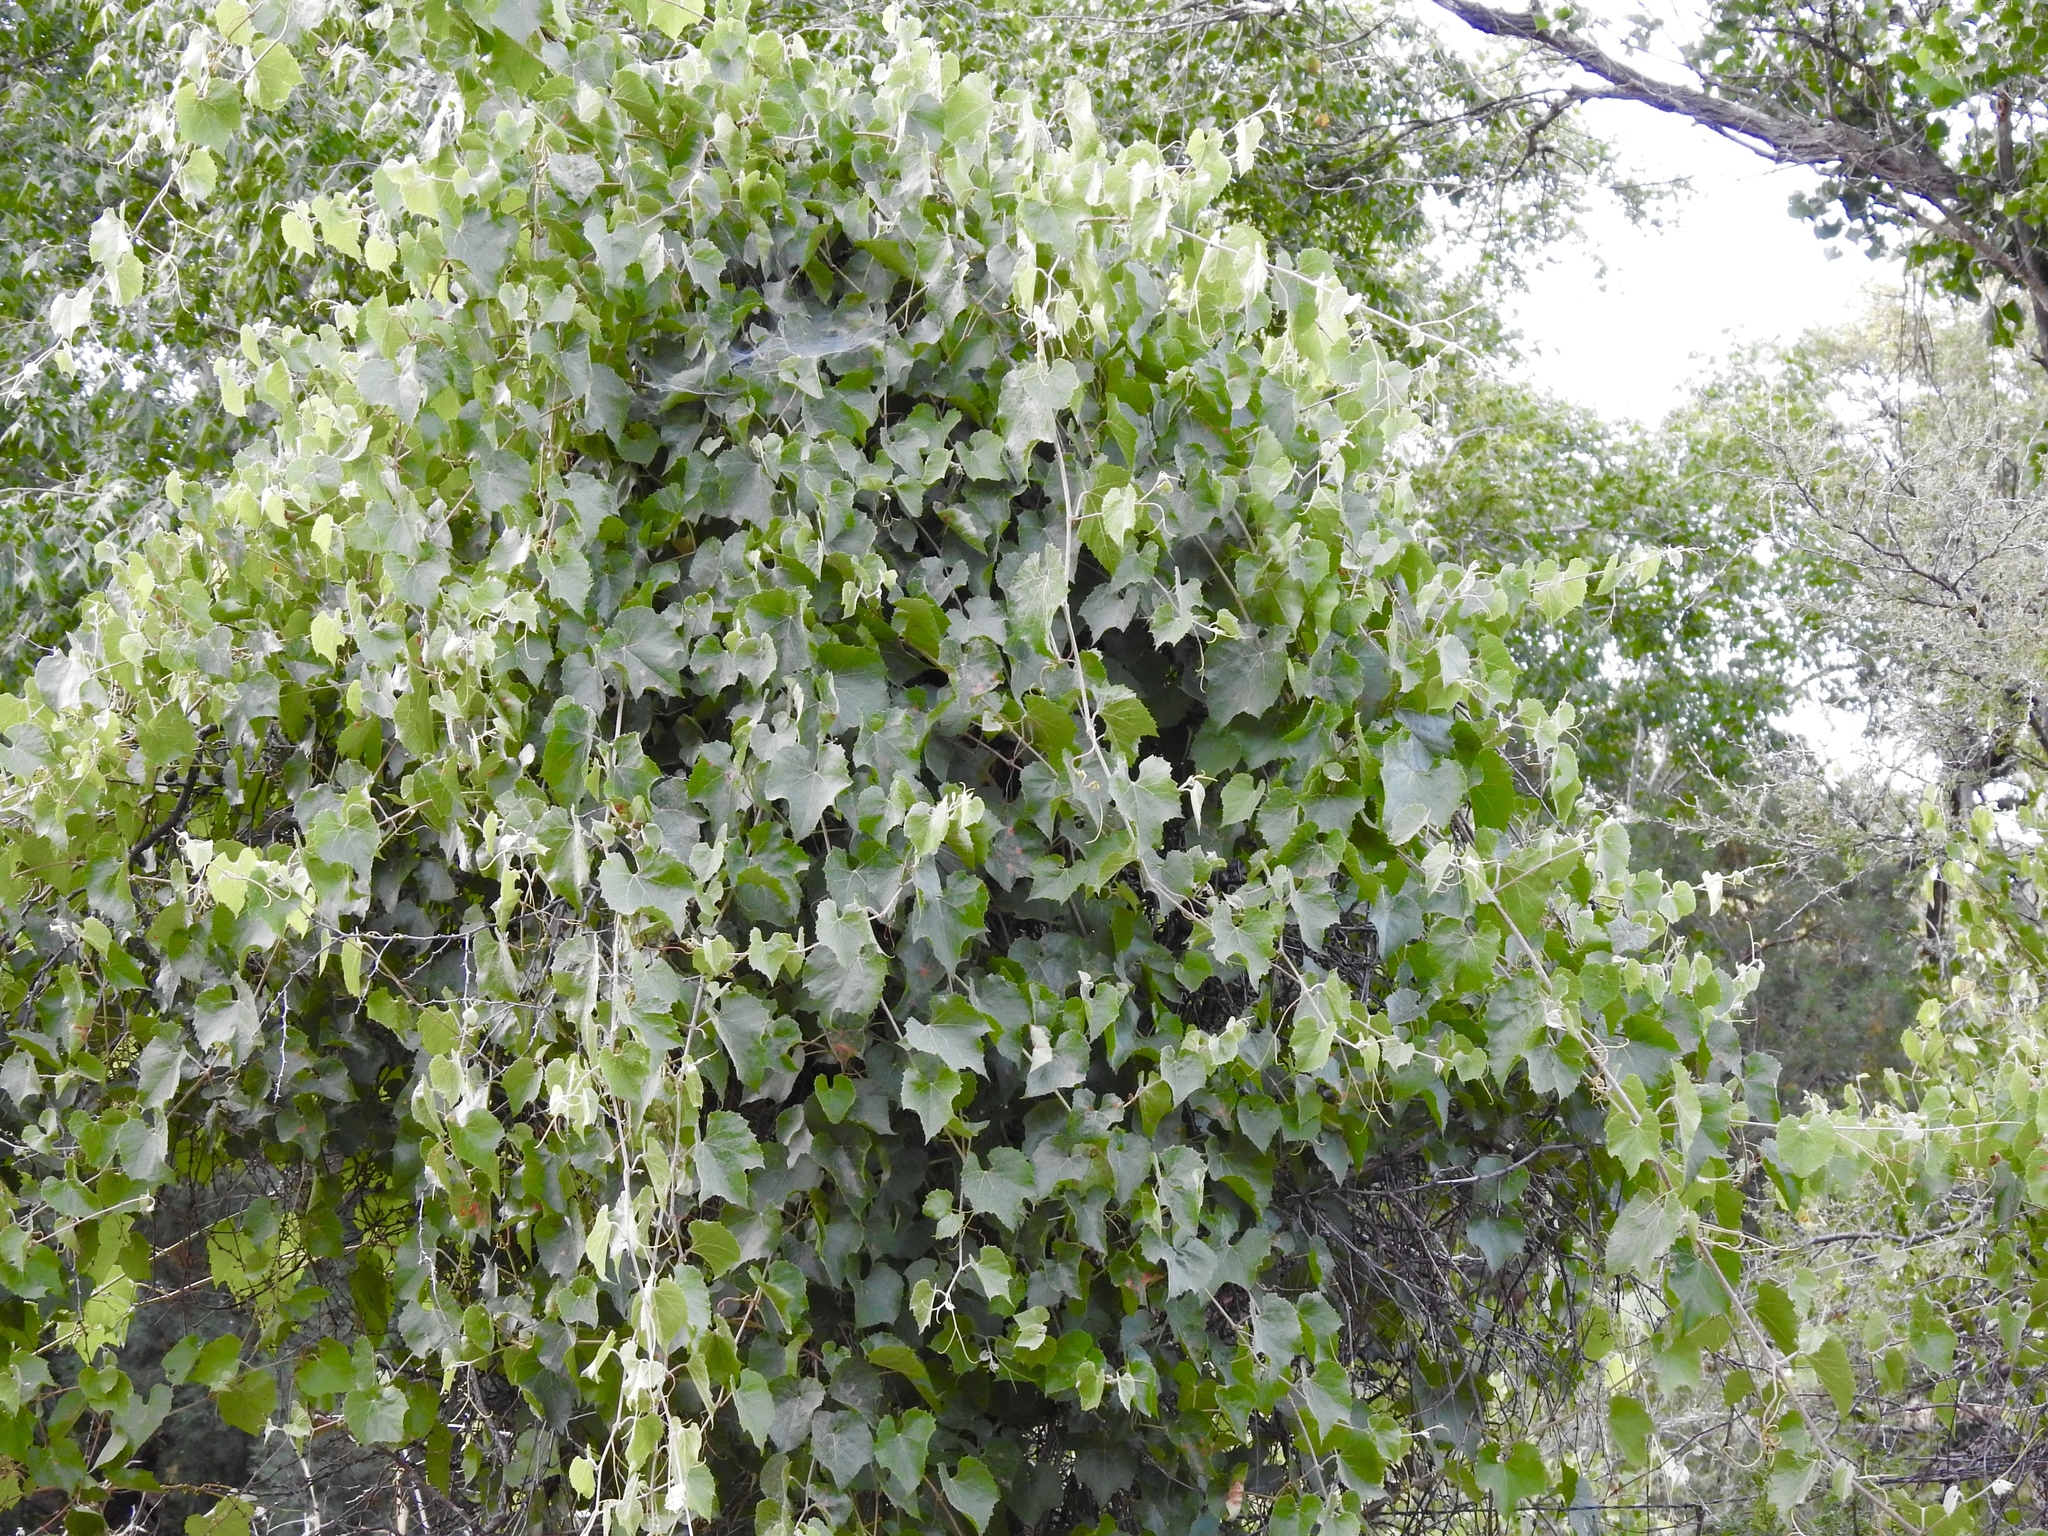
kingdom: Plantae
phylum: Tracheophyta
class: Magnoliopsida
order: Vitales
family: Vitaceae
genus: Vitis
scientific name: Vitis arizonica
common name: Canyon grape
